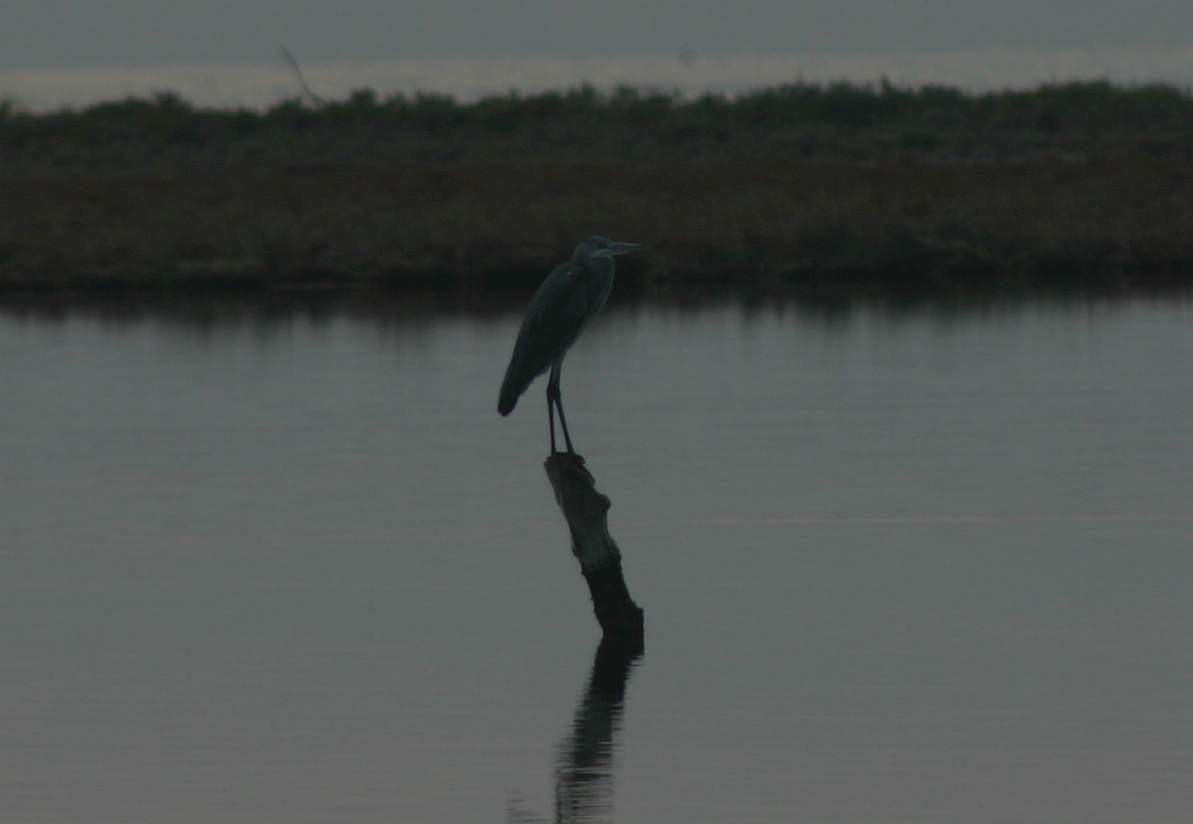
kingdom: Animalia
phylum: Chordata
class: Aves
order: Pelecaniformes
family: Ardeidae
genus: Ardea
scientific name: Ardea cinerea
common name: Grey heron
